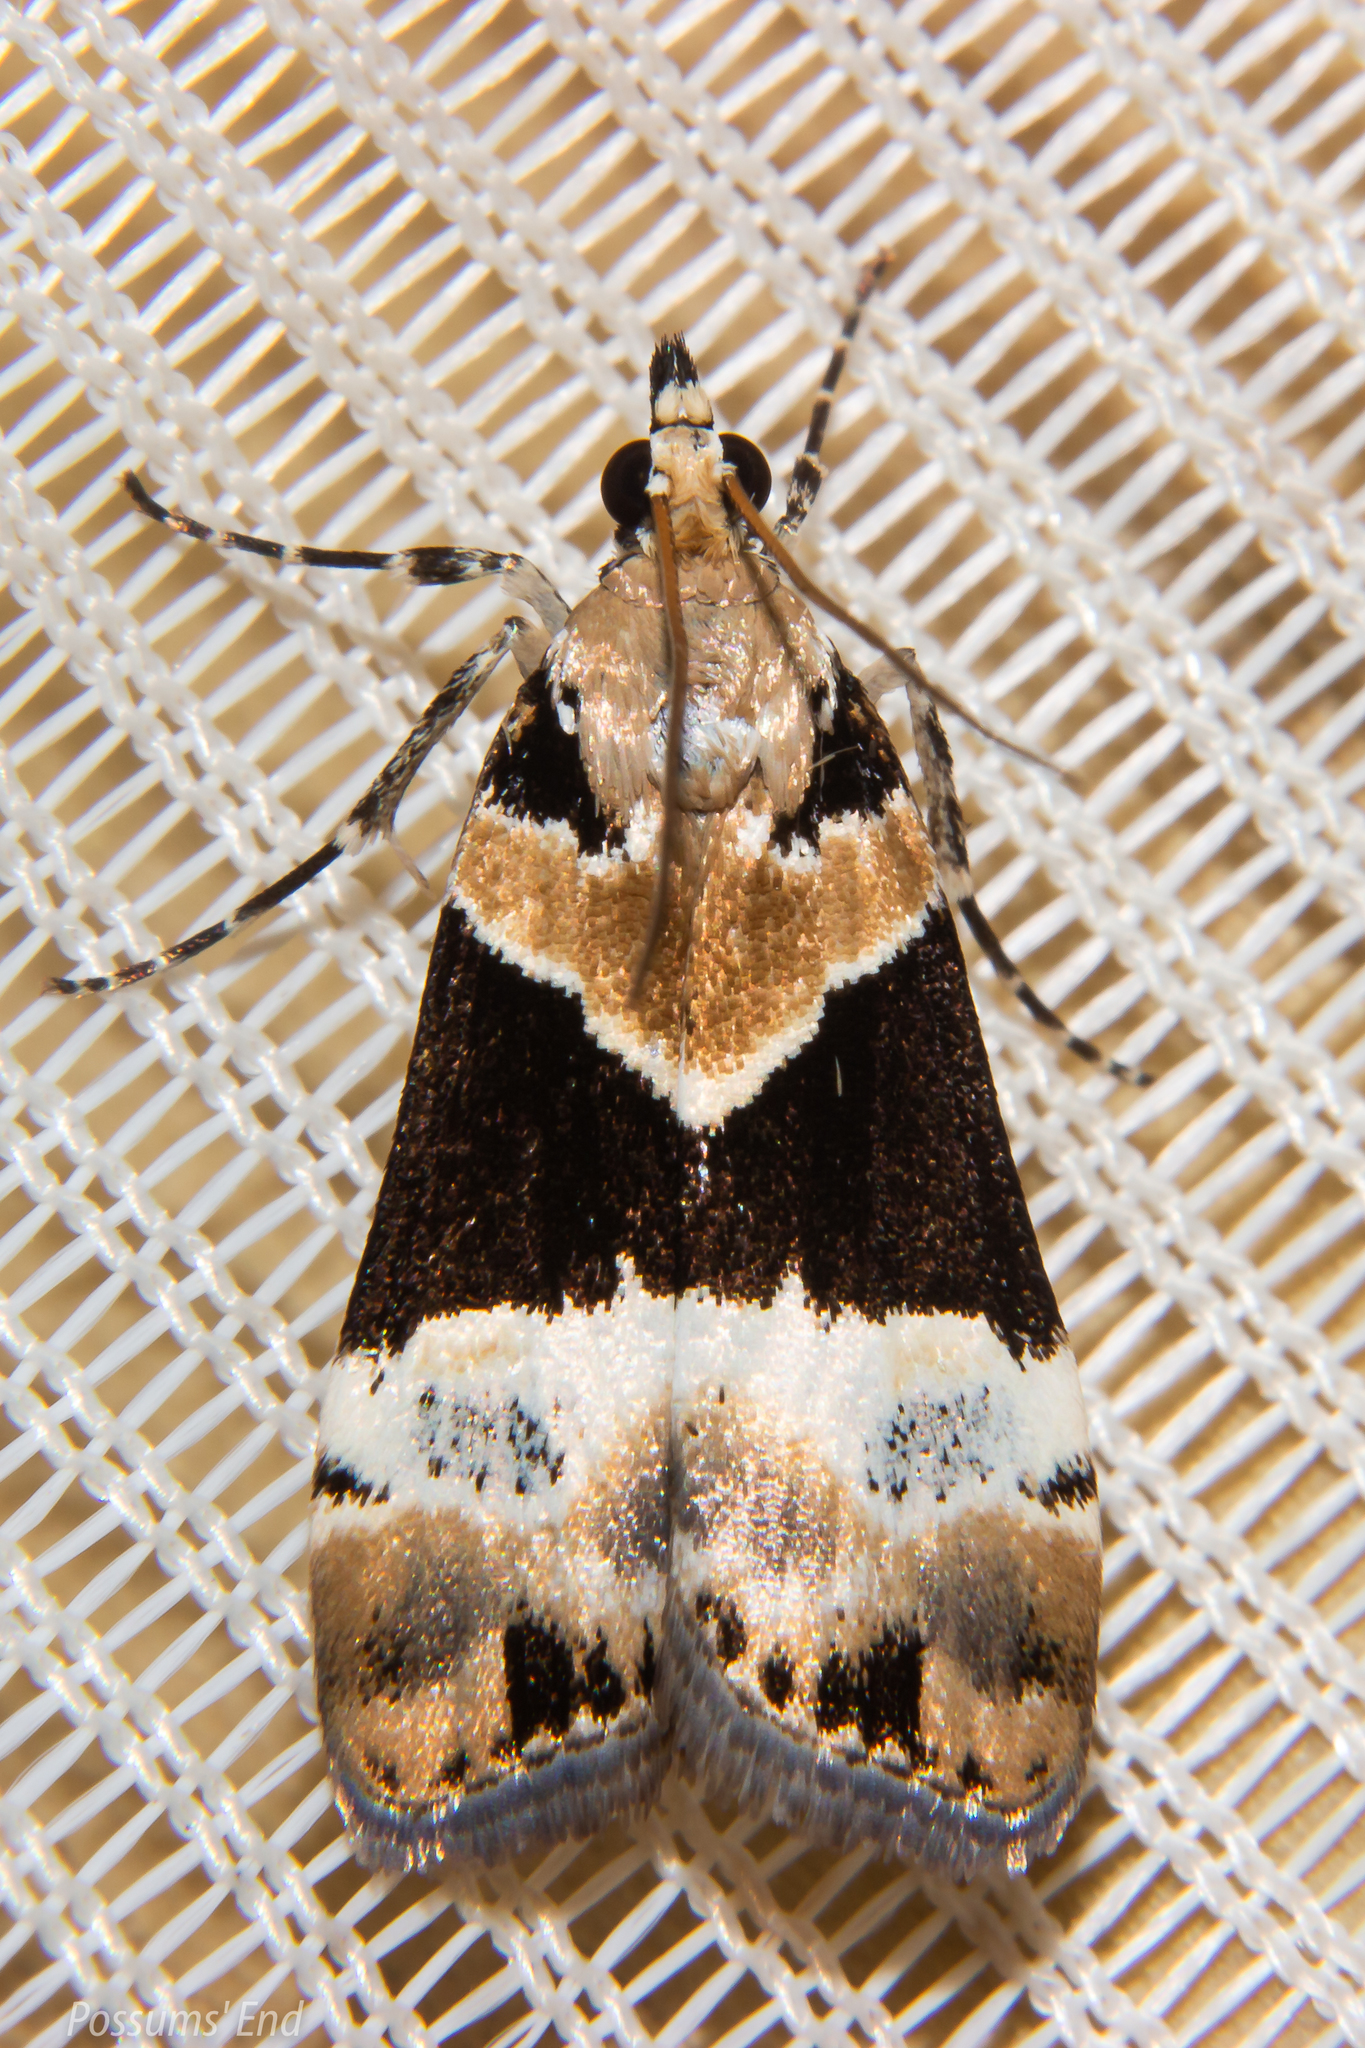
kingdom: Animalia
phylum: Arthropoda
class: Insecta
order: Lepidoptera
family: Crambidae
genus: Eudonia
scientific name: Eudonia aspidota
